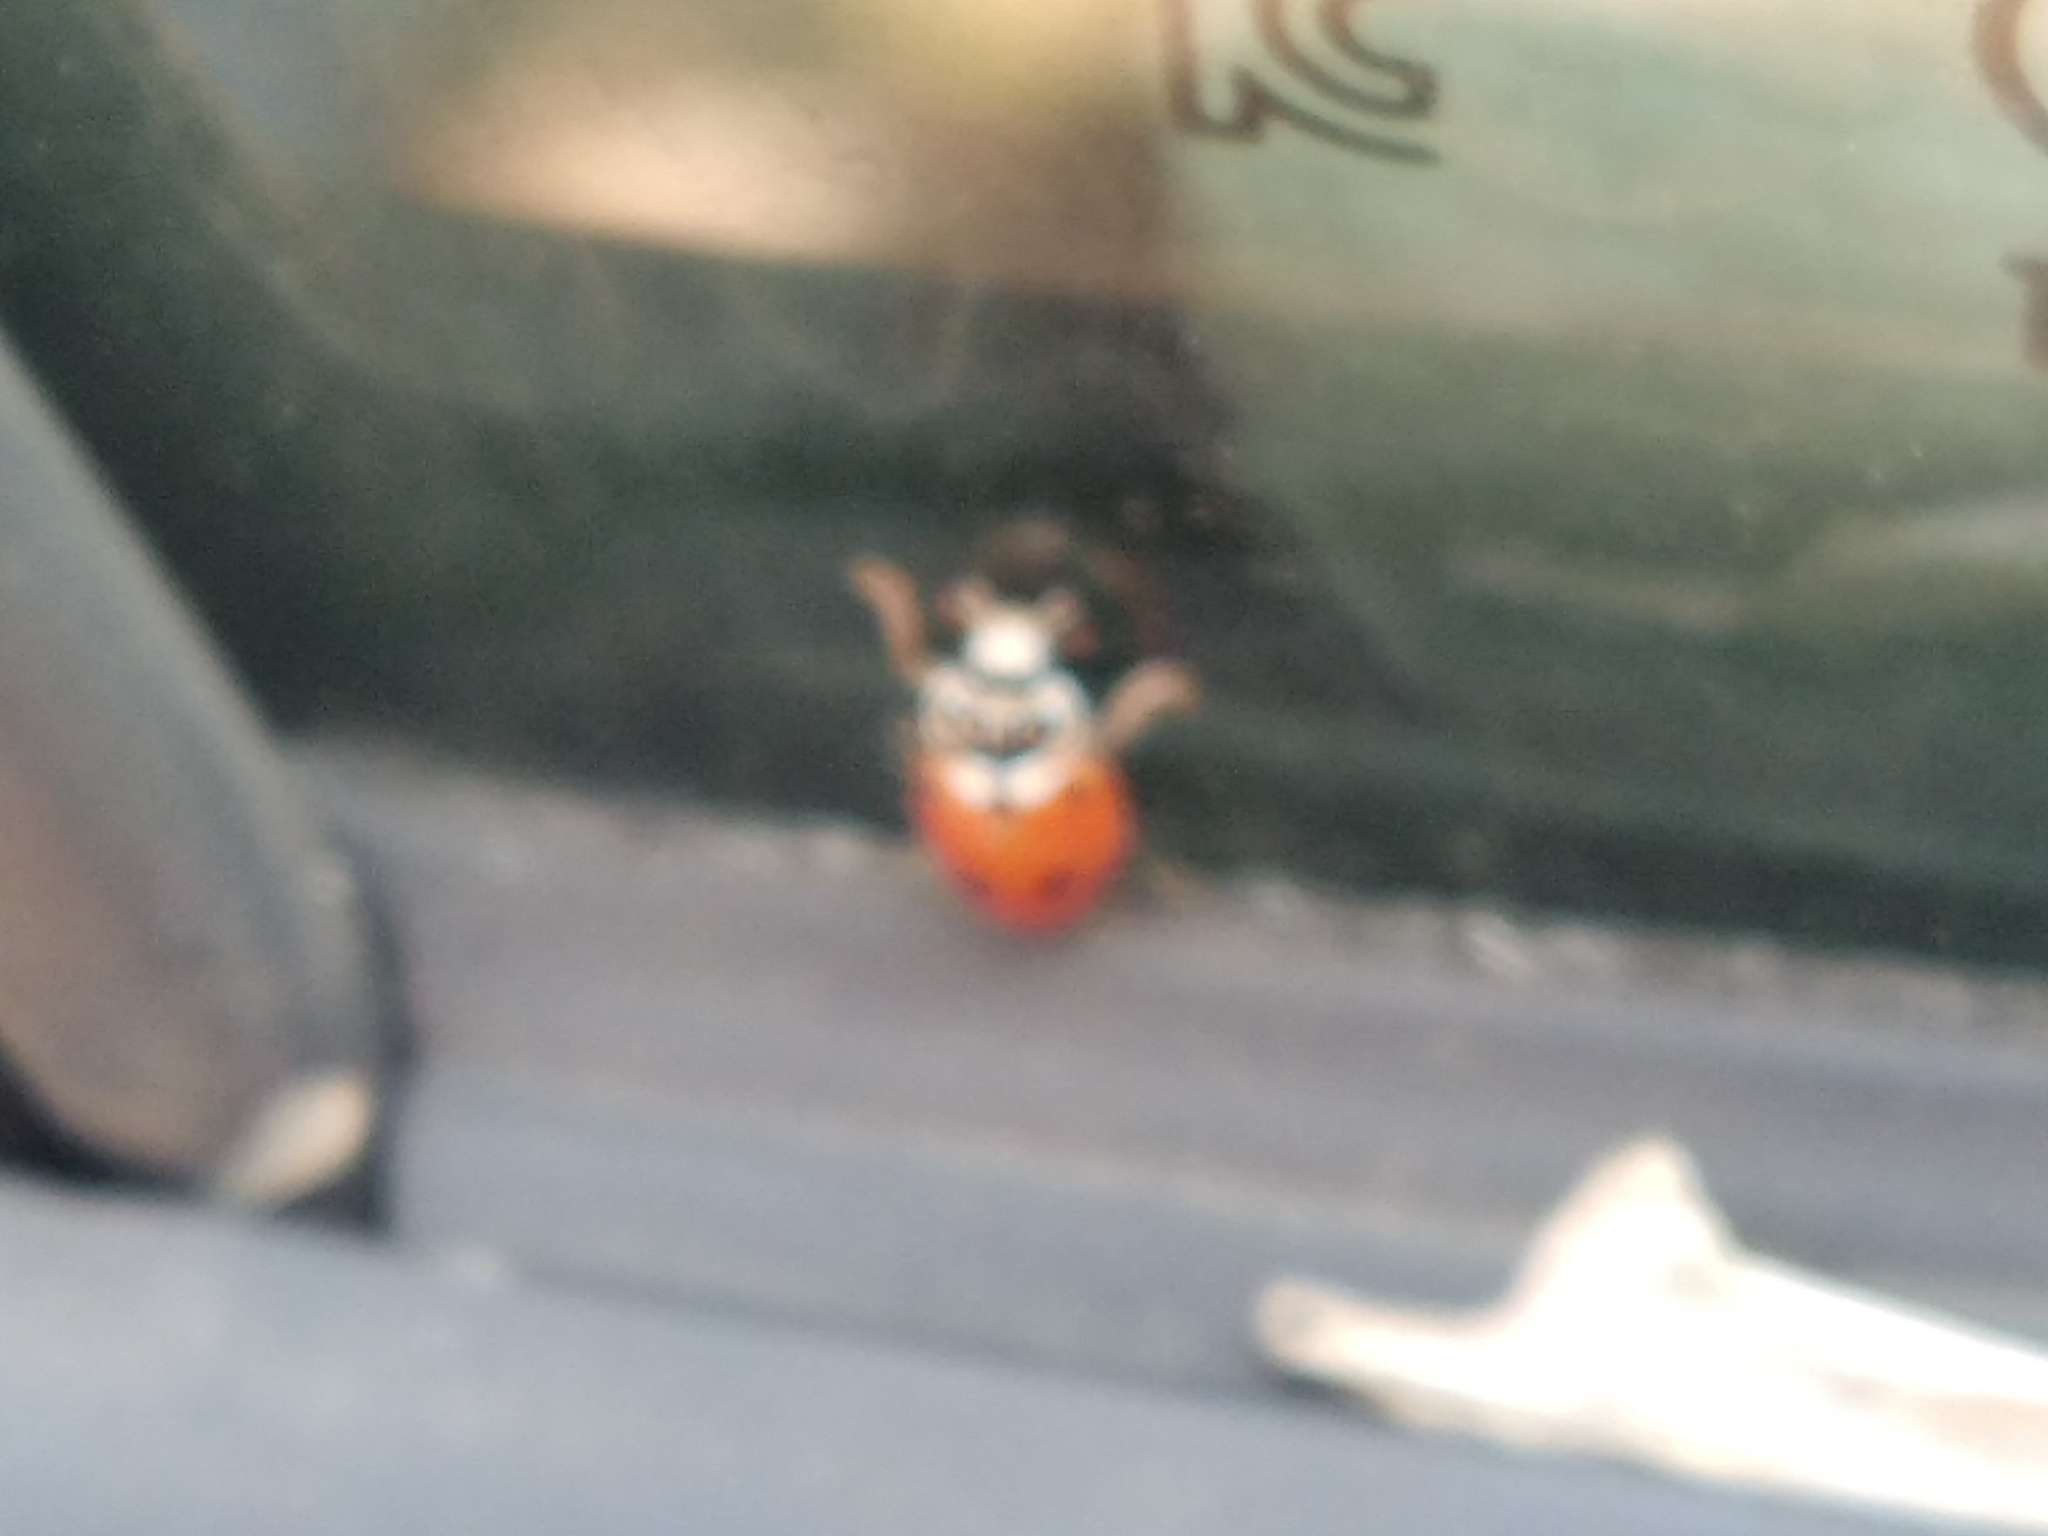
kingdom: Animalia
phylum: Arthropoda
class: Insecta
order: Coleoptera
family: Coccinellidae
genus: Hippodamia
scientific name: Hippodamia variegata
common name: Ladybird beetle
